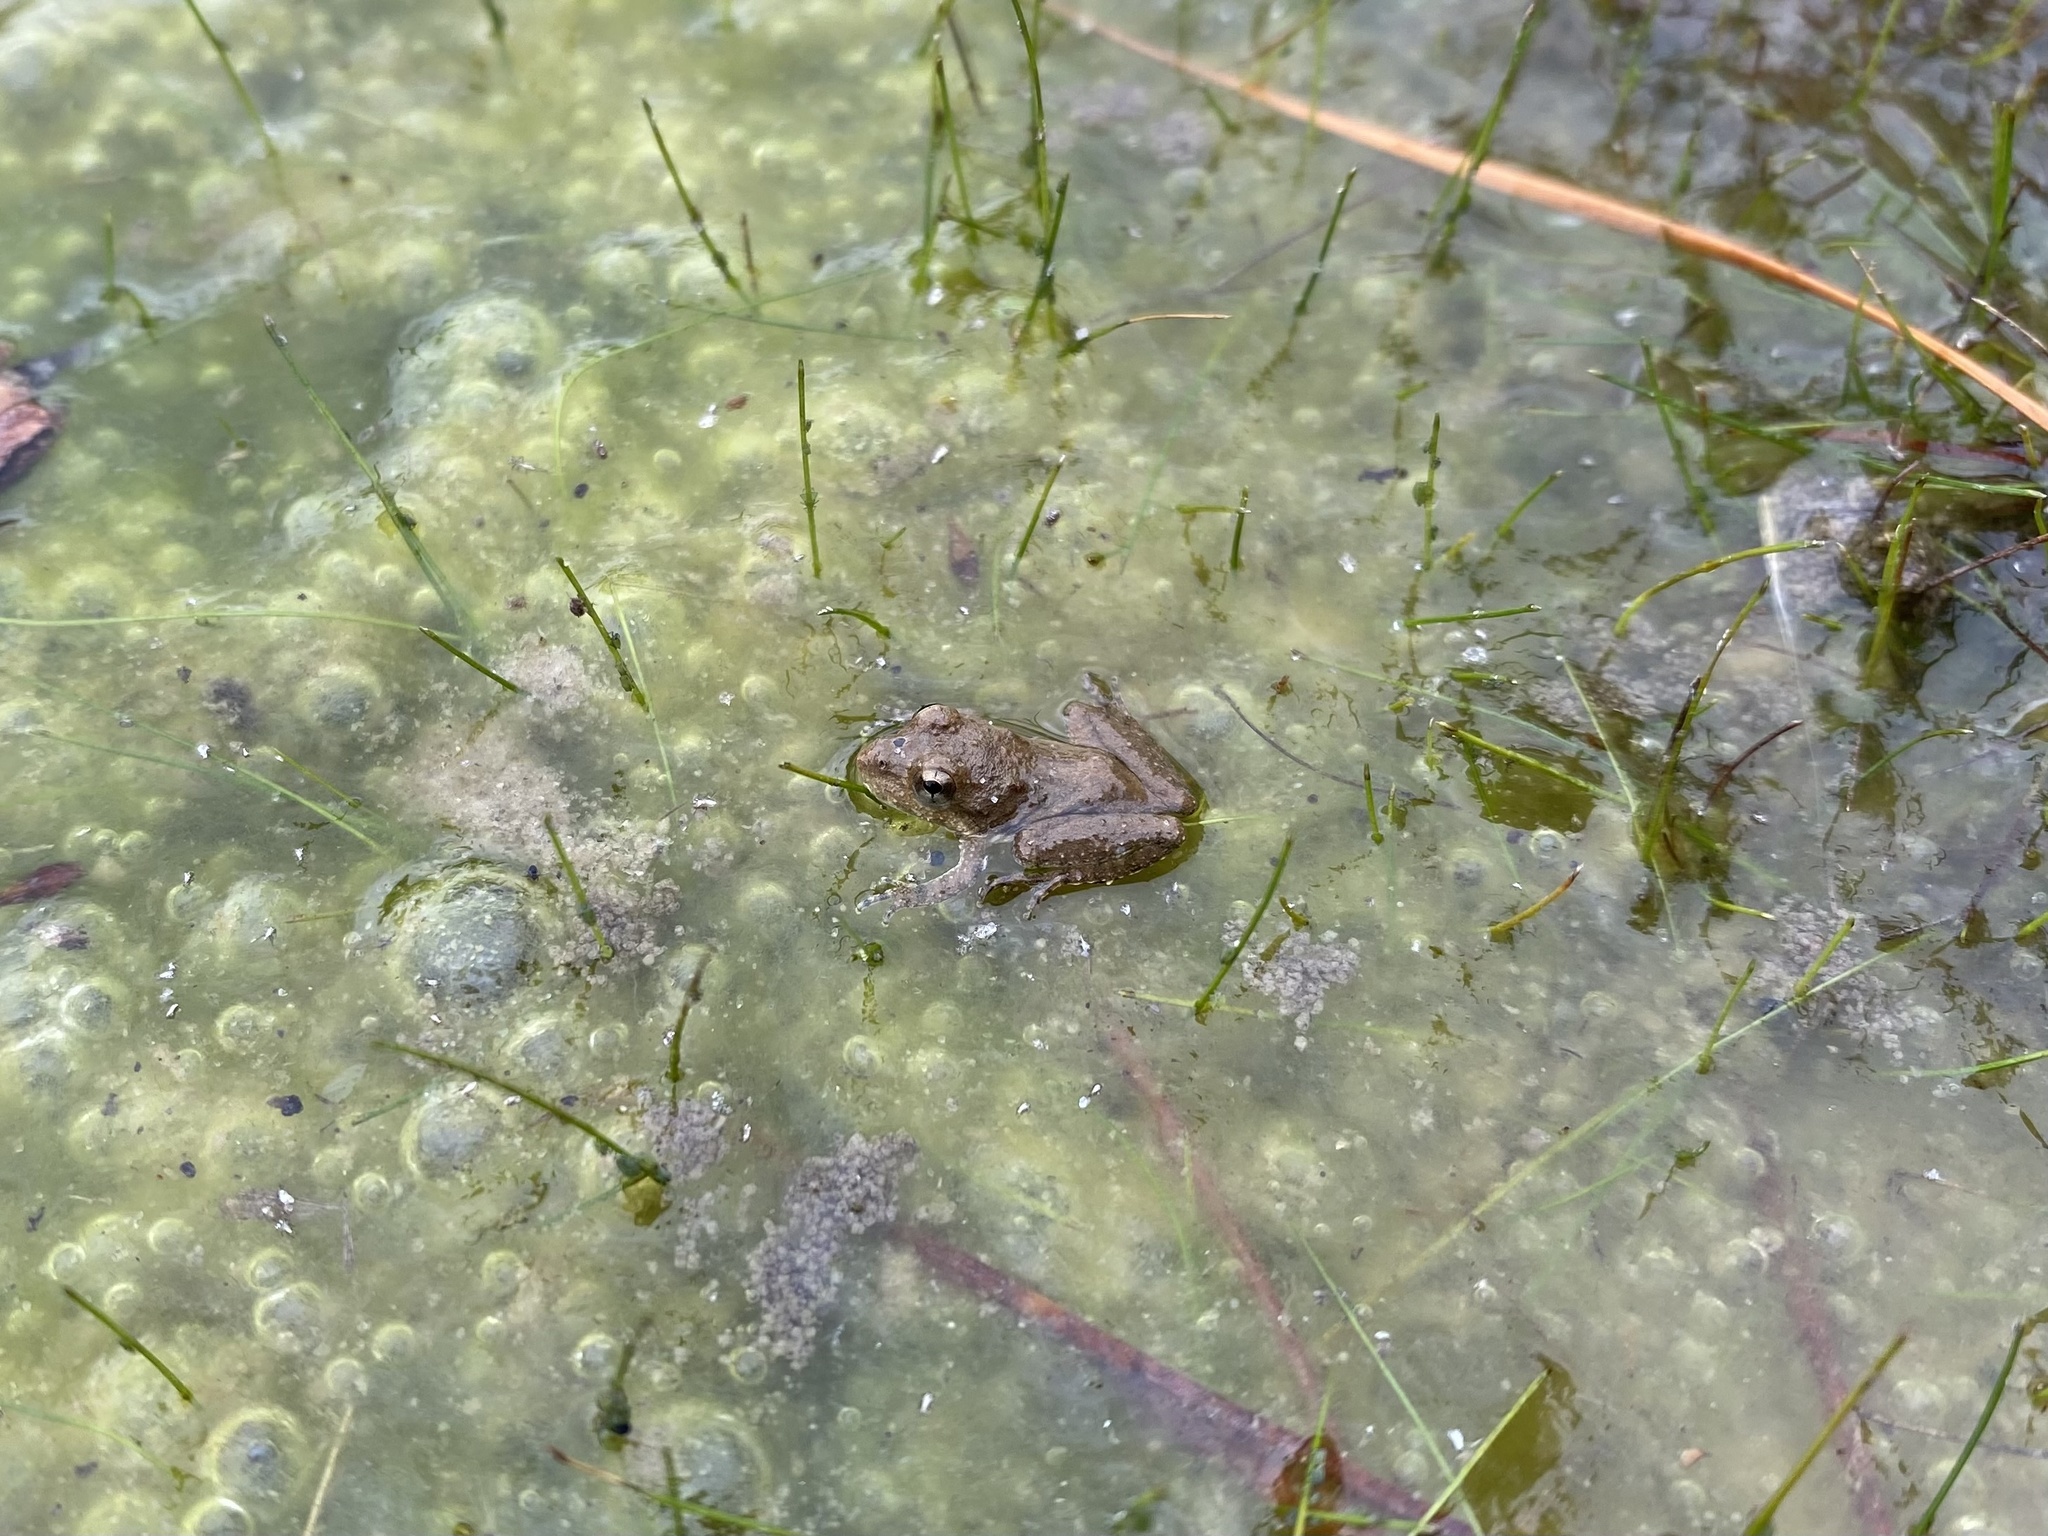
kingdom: Animalia
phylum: Chordata
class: Amphibia
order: Anura
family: Hylidae
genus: Acris
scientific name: Acris blanchardi
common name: Blanchard's cricket frog
